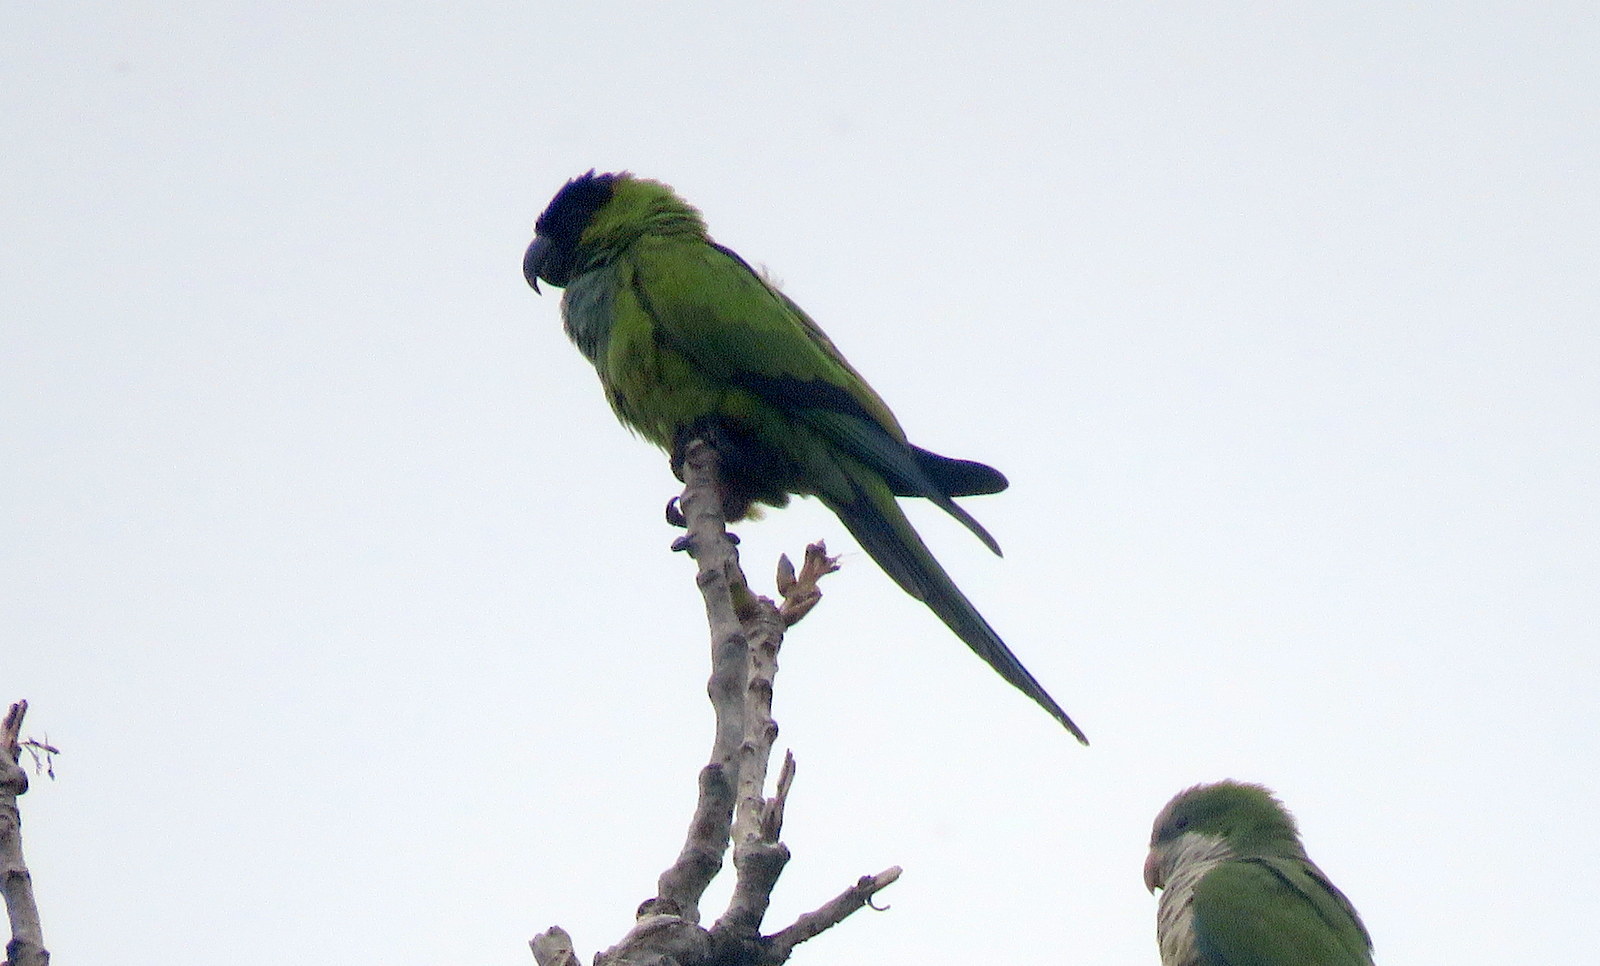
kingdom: Animalia
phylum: Chordata
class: Aves
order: Psittaciformes
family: Psittacidae
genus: Nandayus
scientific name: Nandayus nenday
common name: Nanday parakeet
